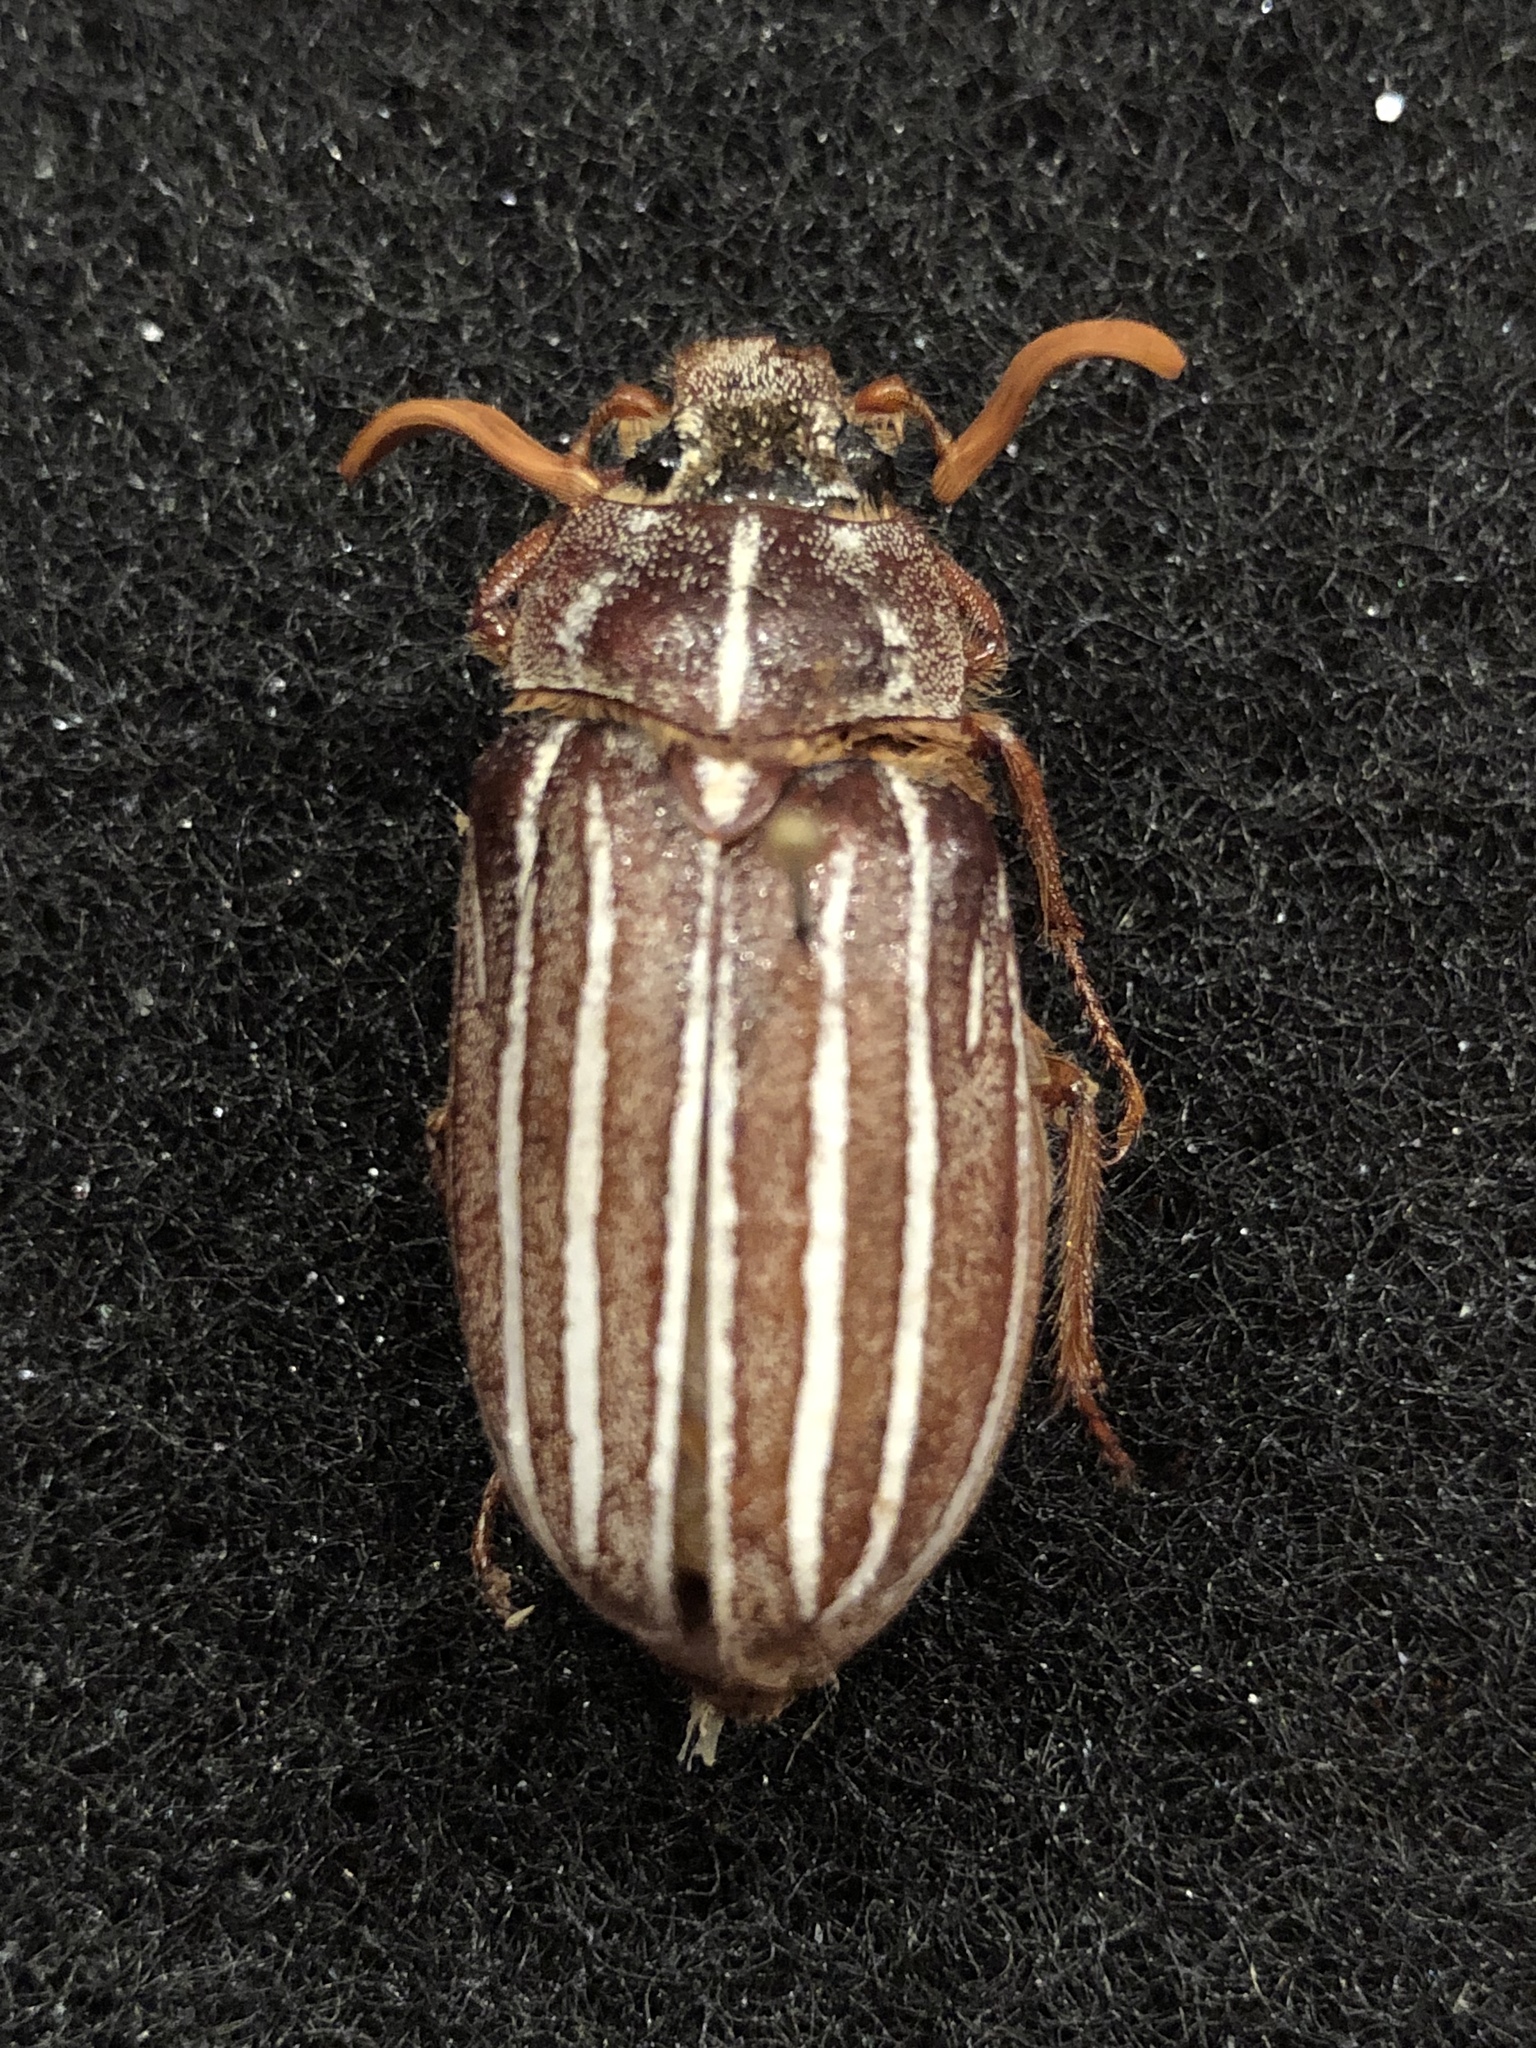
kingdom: Animalia
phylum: Arthropoda
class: Insecta
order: Coleoptera
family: Scarabaeidae
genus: Polyphylla
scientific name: Polyphylla decemlineata
